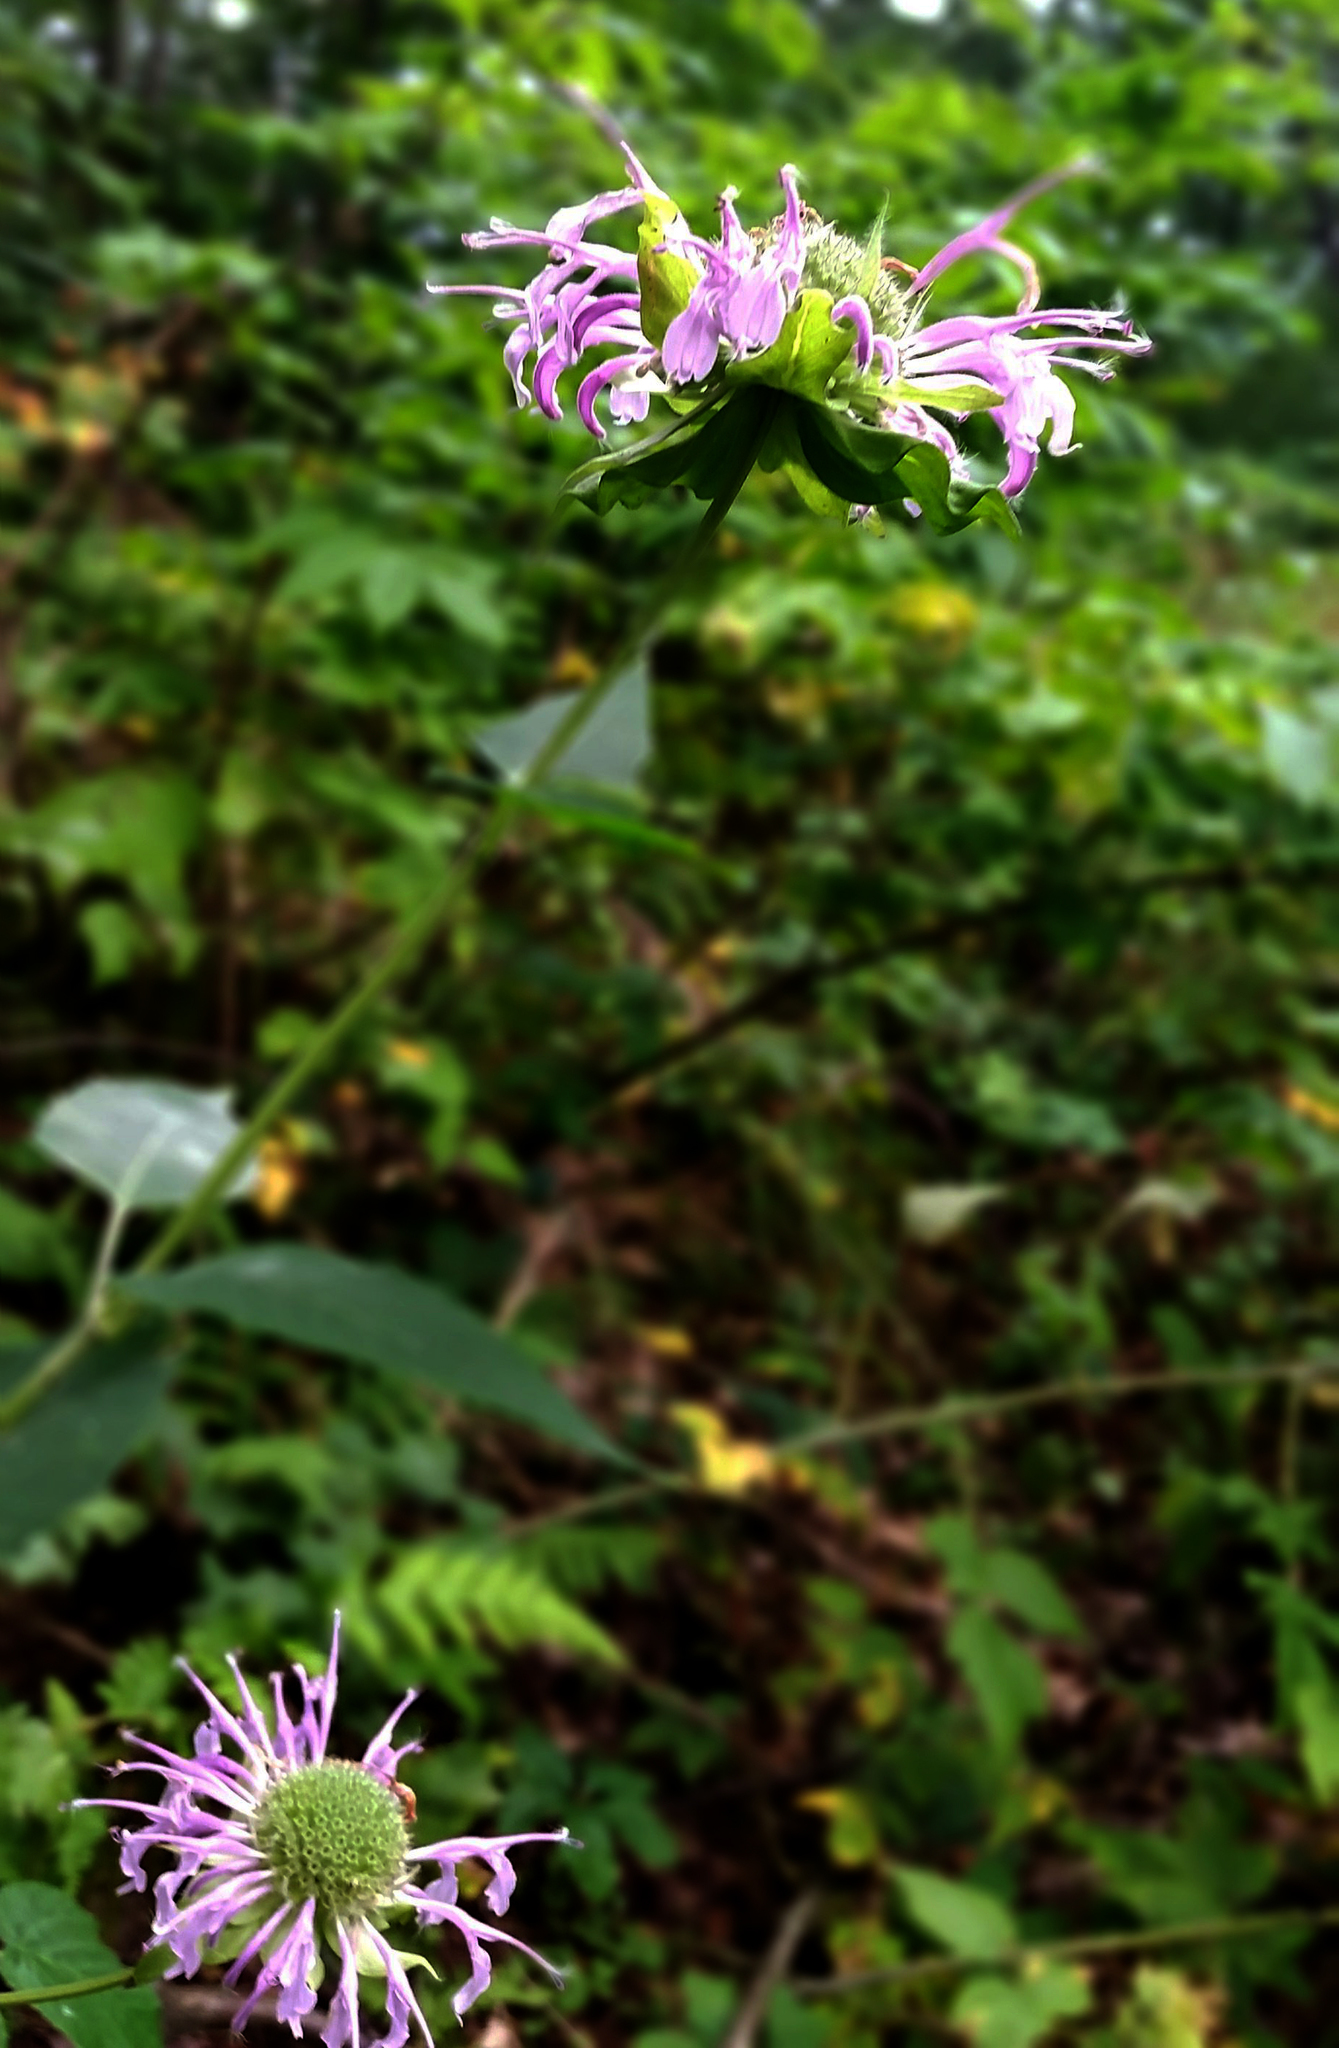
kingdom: Plantae
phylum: Tracheophyta
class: Magnoliopsida
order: Lamiales
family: Lamiaceae
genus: Monarda
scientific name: Monarda fistulosa
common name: Purple beebalm
